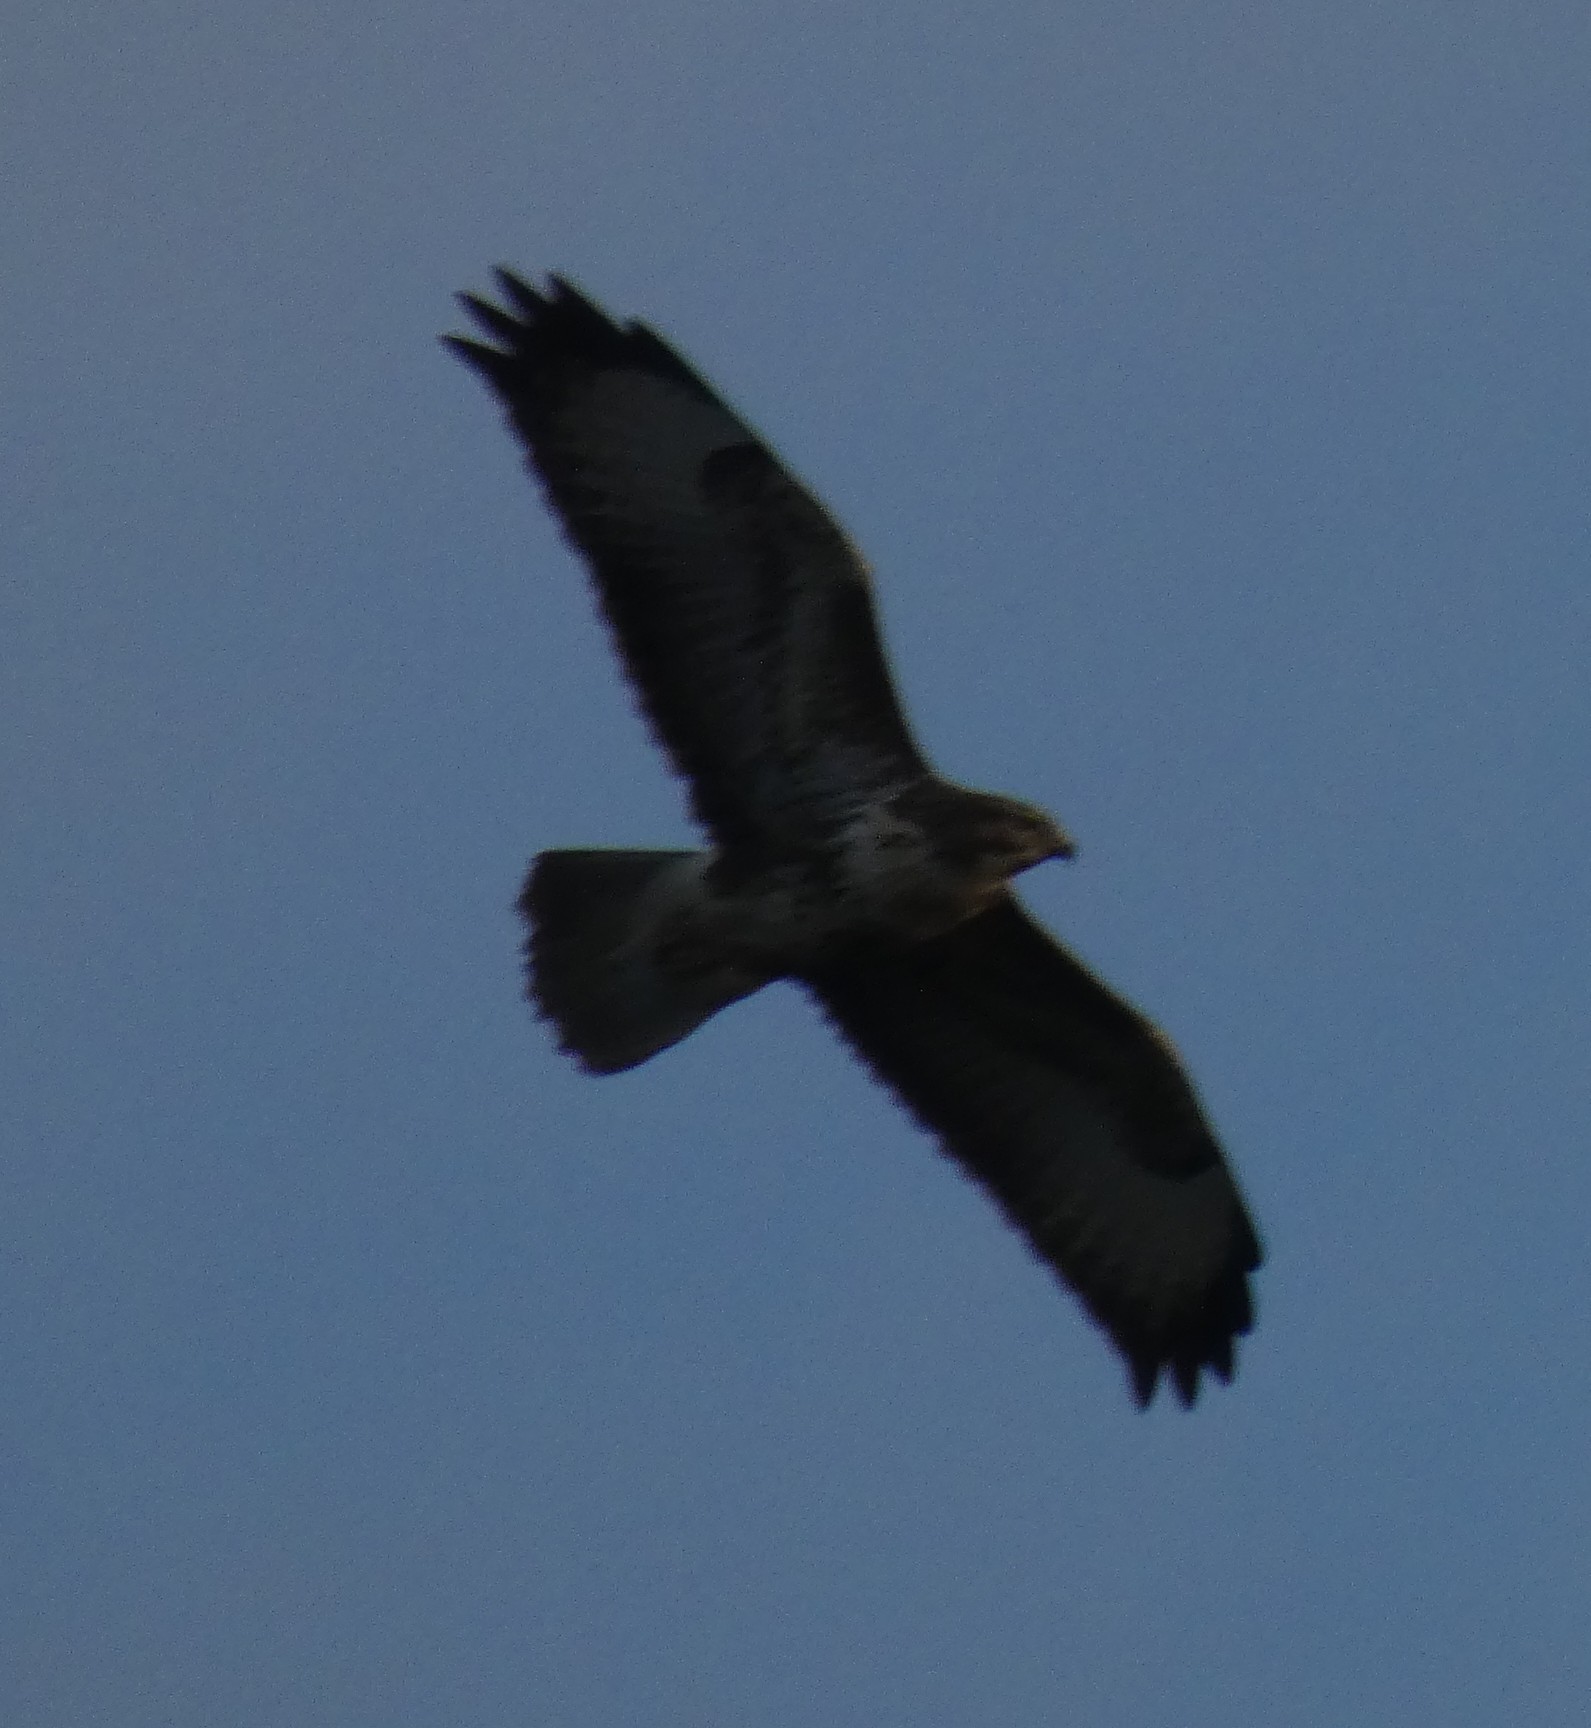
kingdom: Animalia
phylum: Chordata
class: Aves
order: Accipitriformes
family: Accipitridae
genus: Buteo
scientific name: Buteo buteo
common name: Common buzzard
